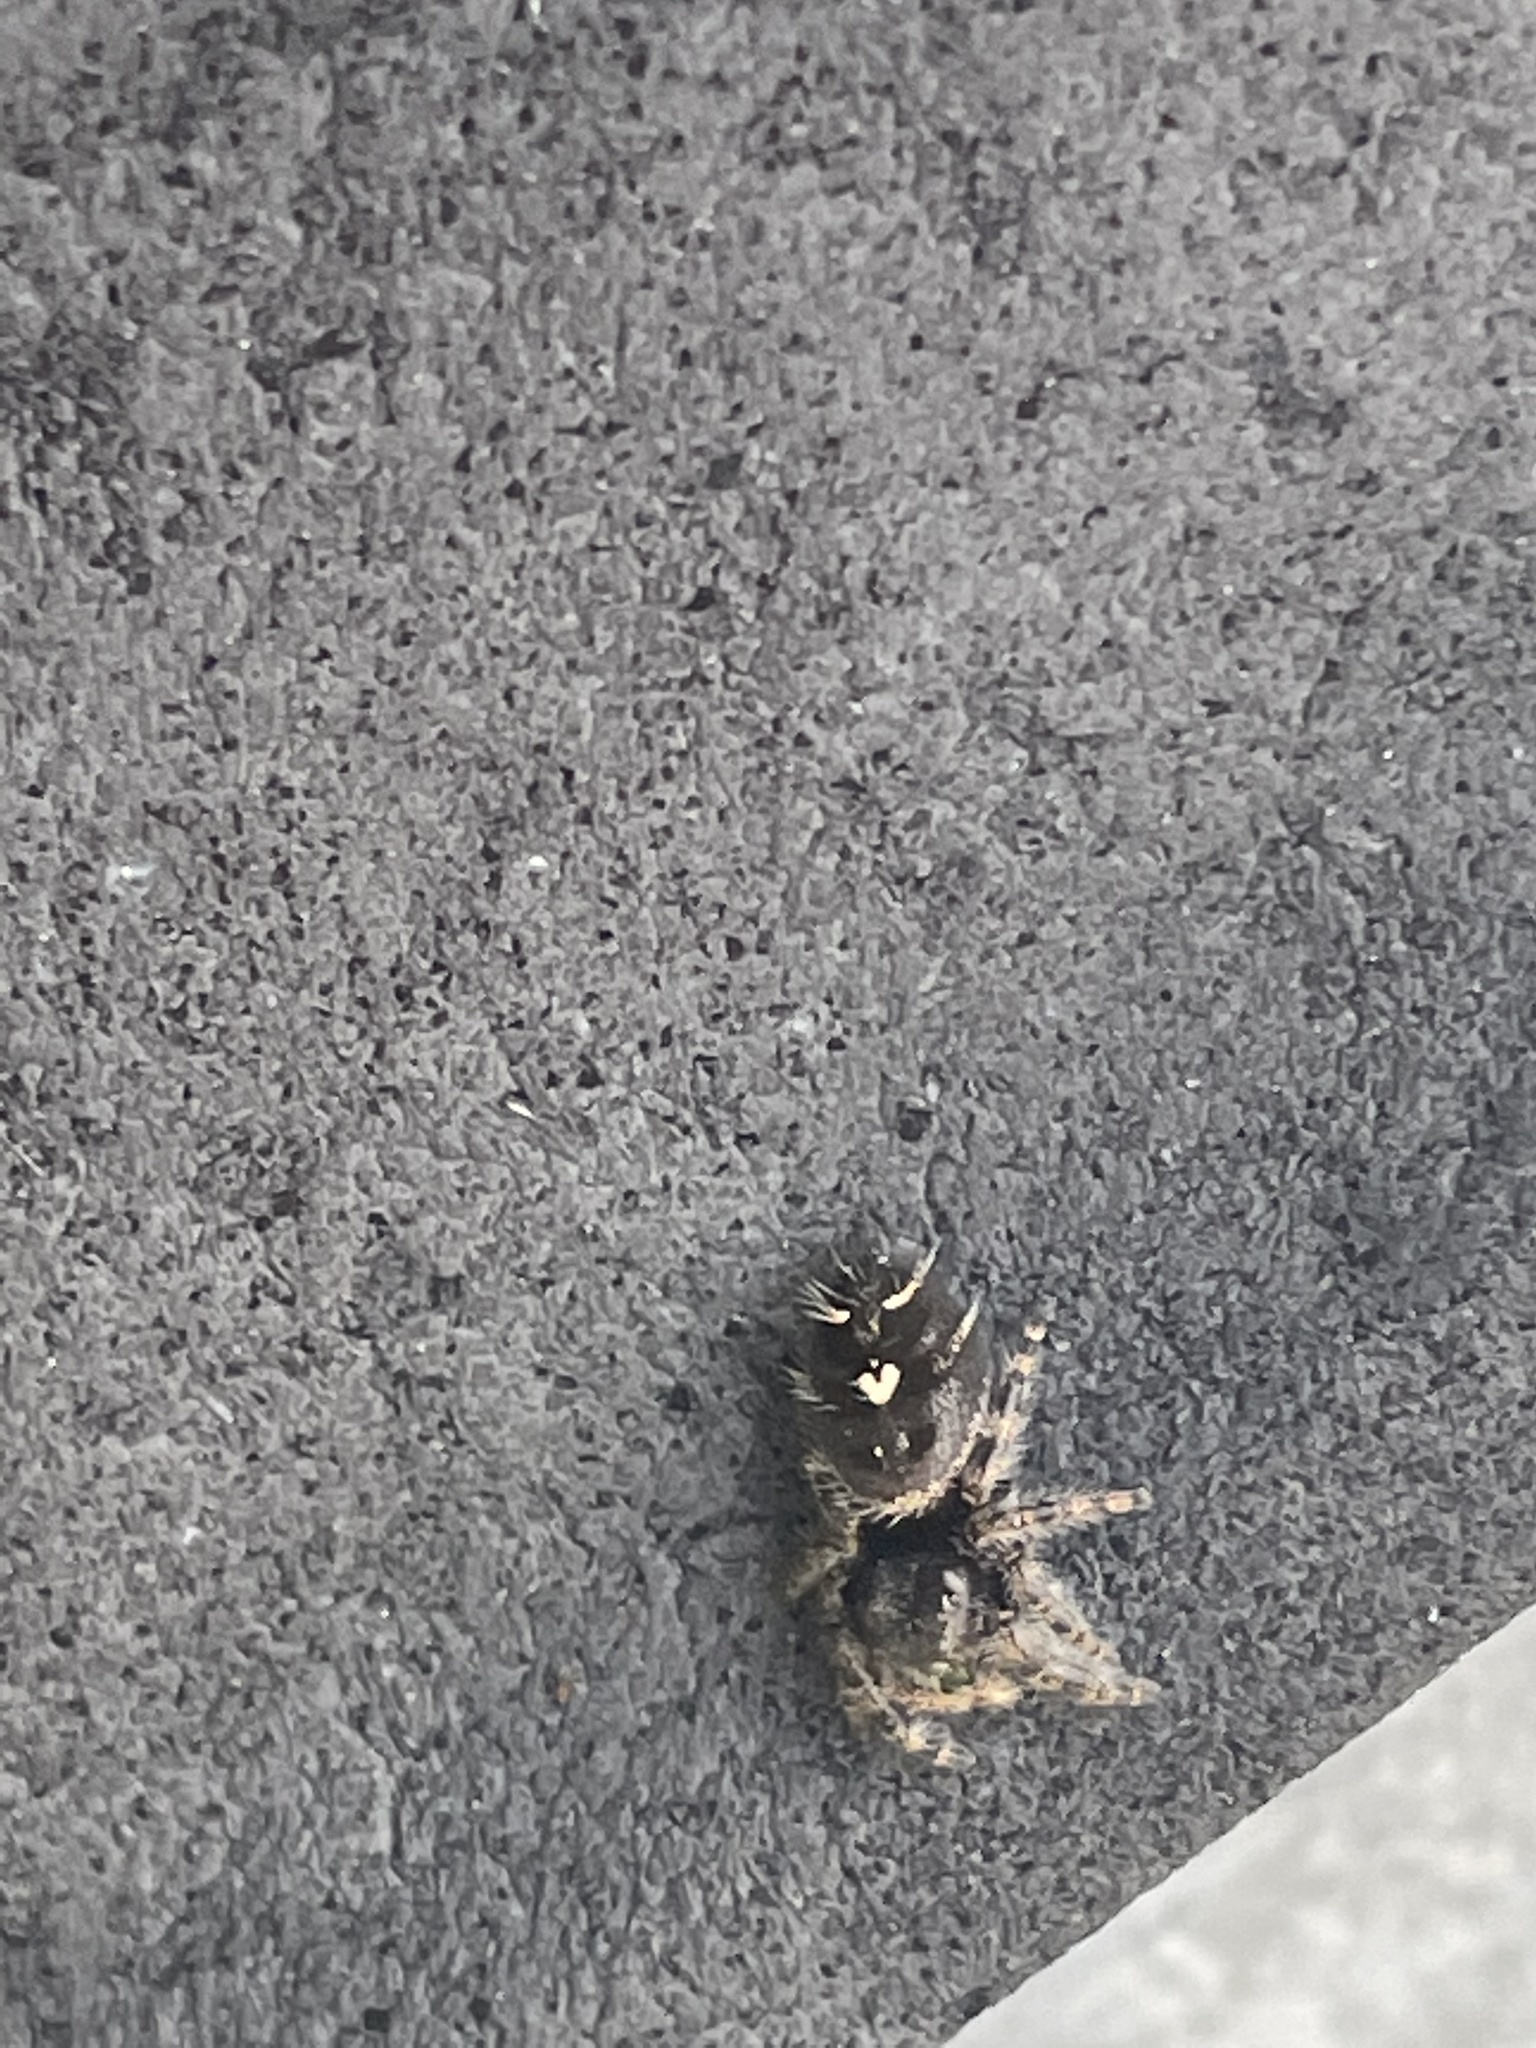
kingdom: Animalia
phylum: Arthropoda
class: Arachnida
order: Araneae
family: Salticidae
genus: Phidippus
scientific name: Phidippus audax
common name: Bold jumper
